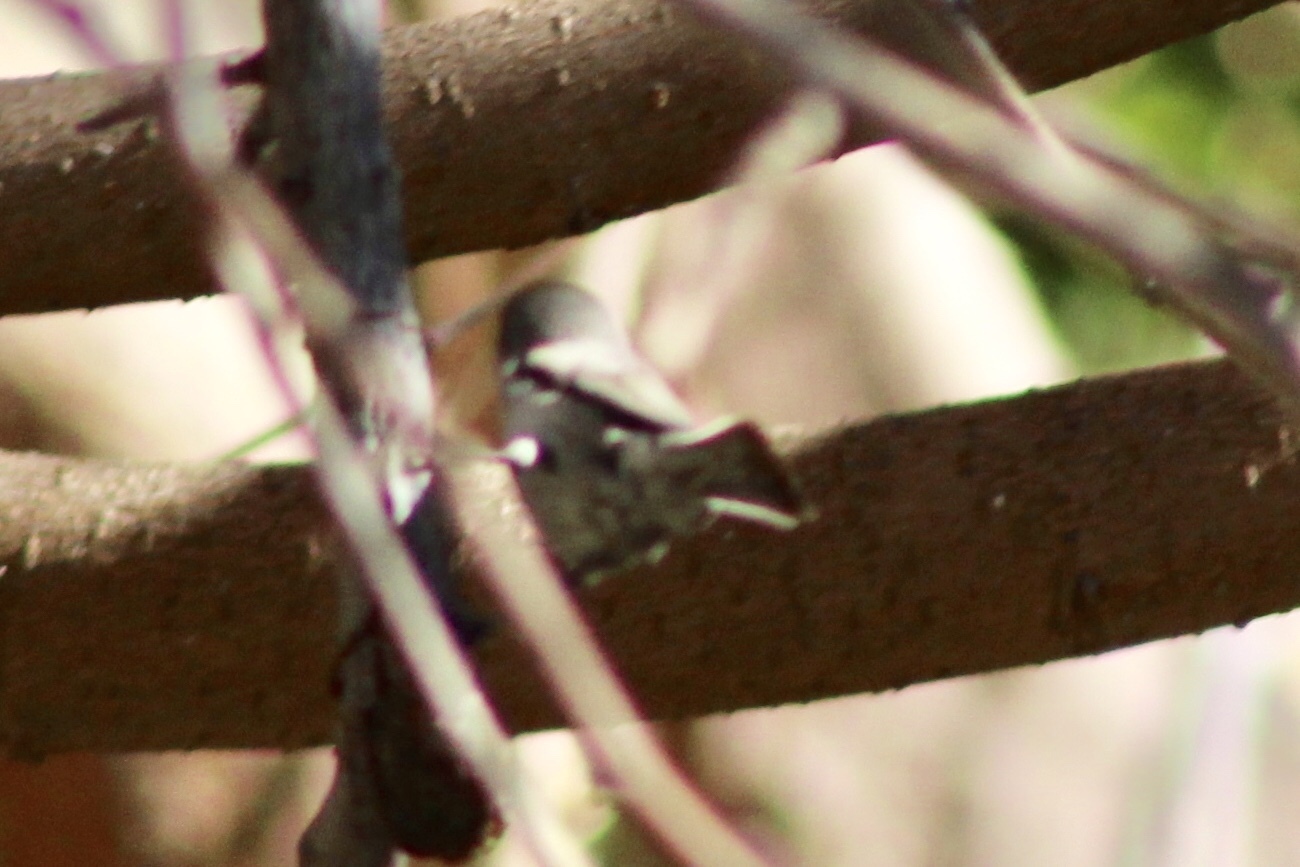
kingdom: Animalia
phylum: Chordata
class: Aves
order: Passeriformes
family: Remizidae
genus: Auriparus
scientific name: Auriparus flaviceps
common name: Verdin
